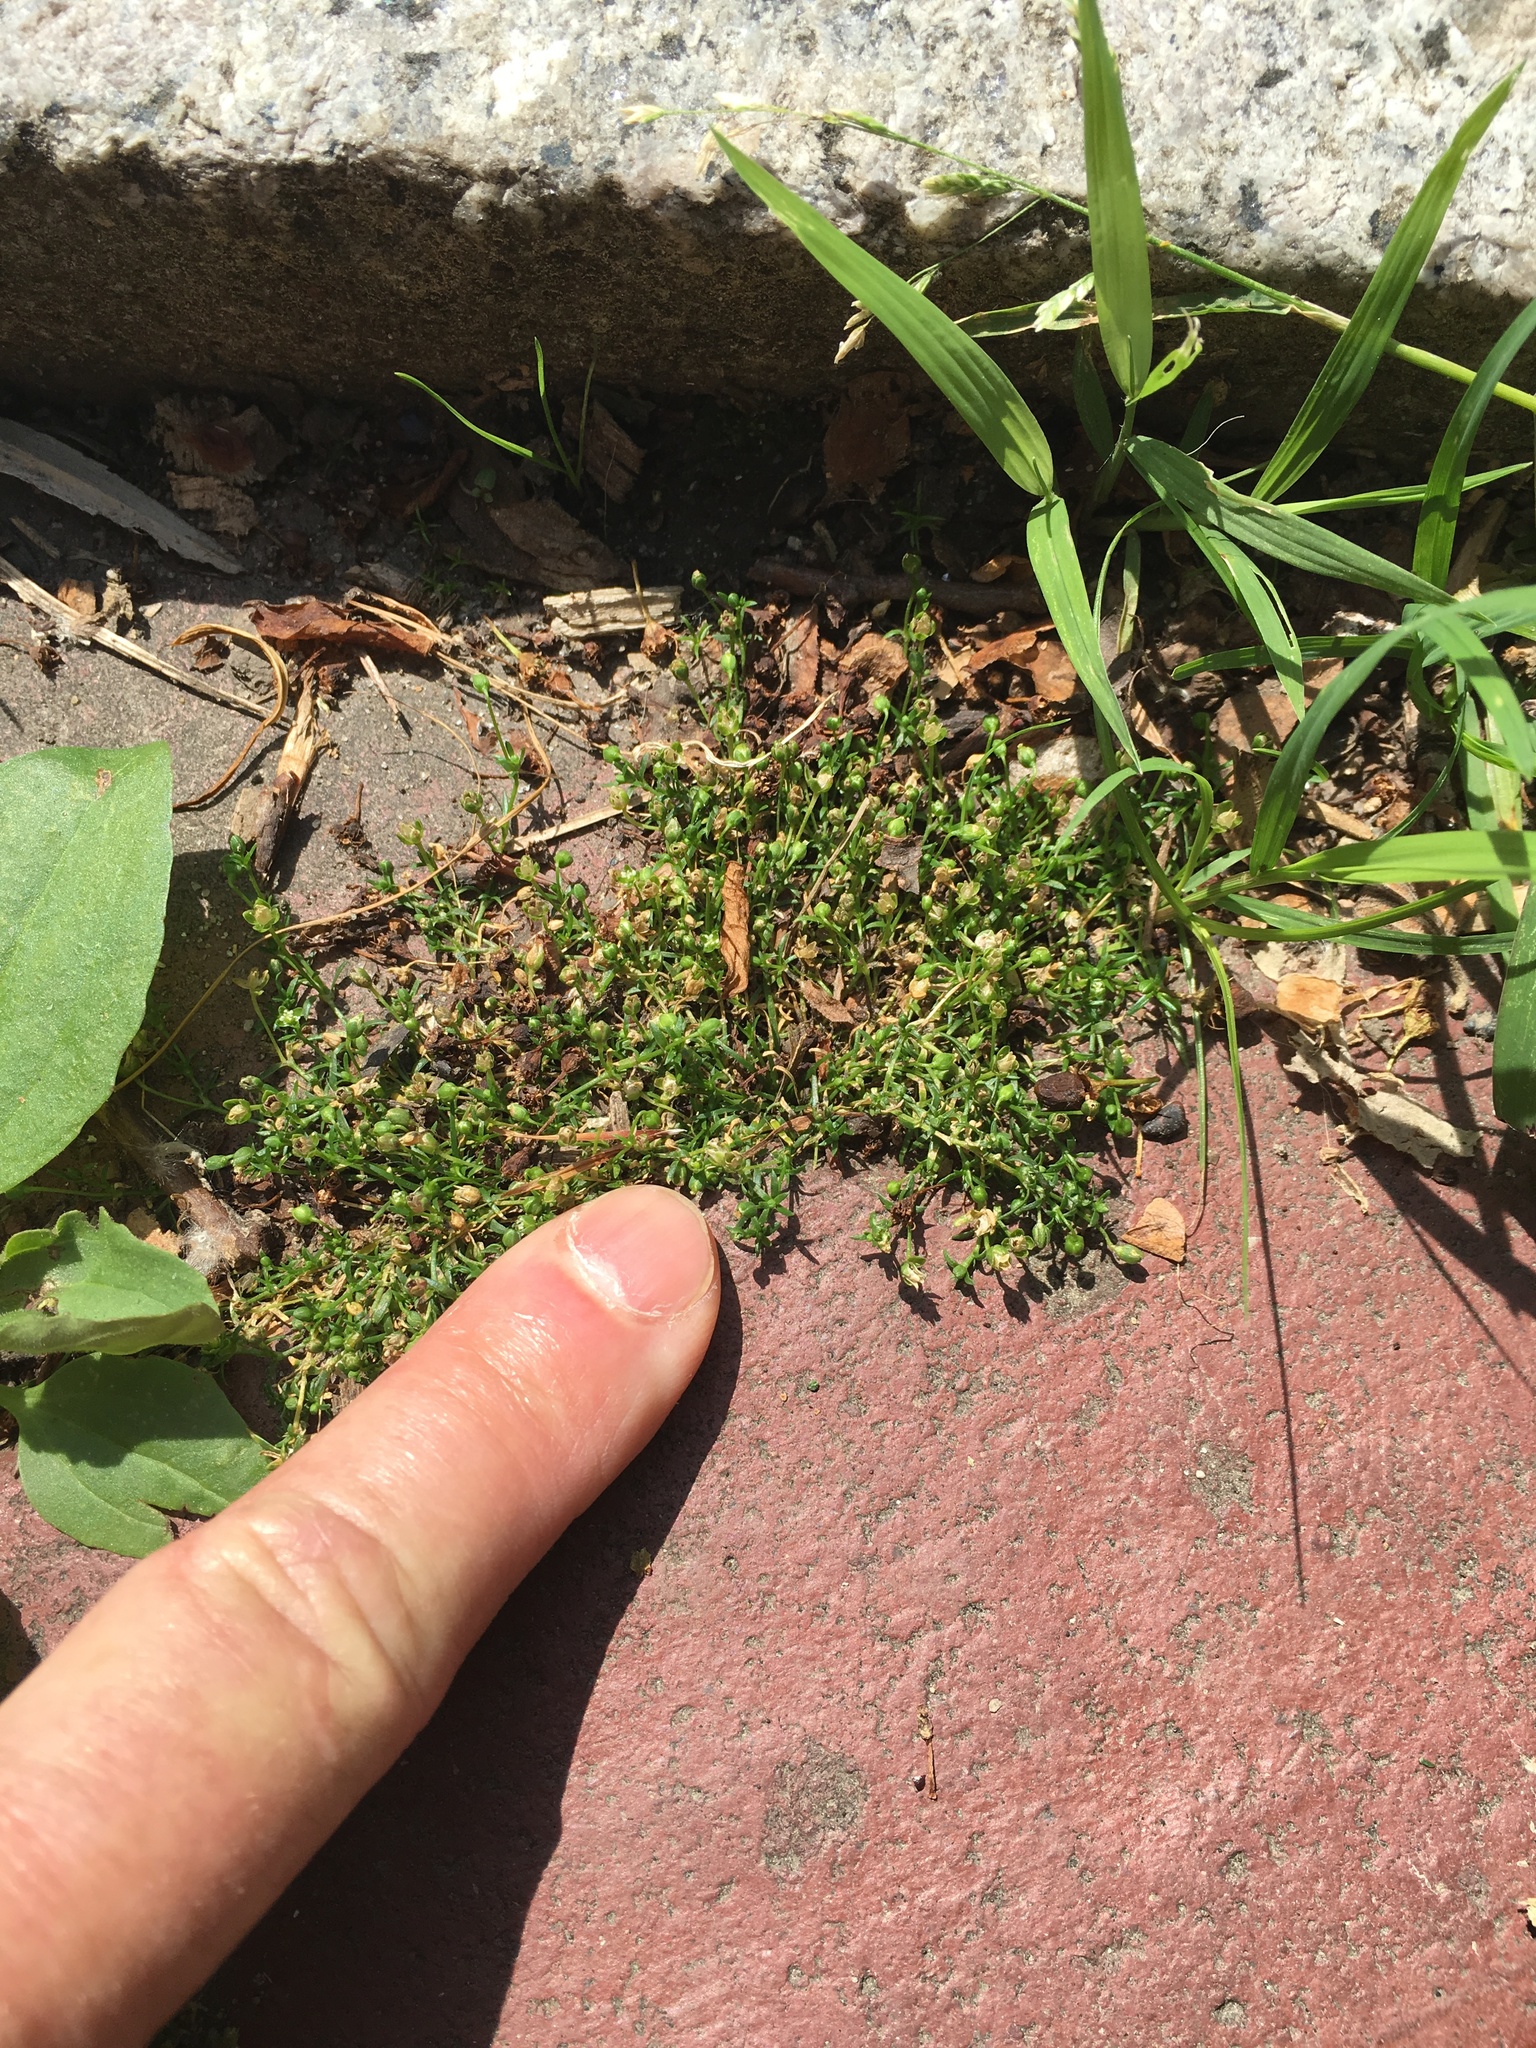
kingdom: Plantae
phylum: Tracheophyta
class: Magnoliopsida
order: Caryophyllales
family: Caryophyllaceae
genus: Sagina
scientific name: Sagina procumbens
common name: Procumbent pearlwort
